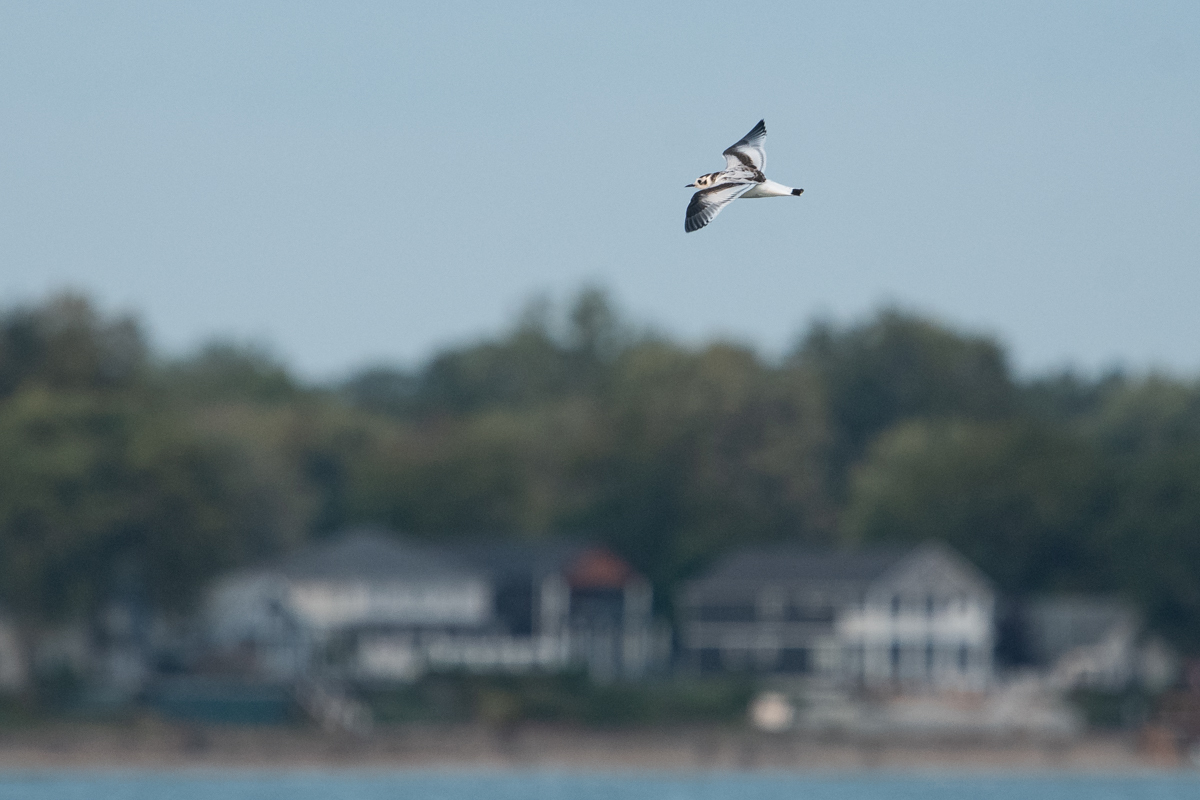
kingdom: Animalia
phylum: Chordata
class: Aves
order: Charadriiformes
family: Laridae
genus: Hydrocoloeus
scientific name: Hydrocoloeus minutus
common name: Little gull
